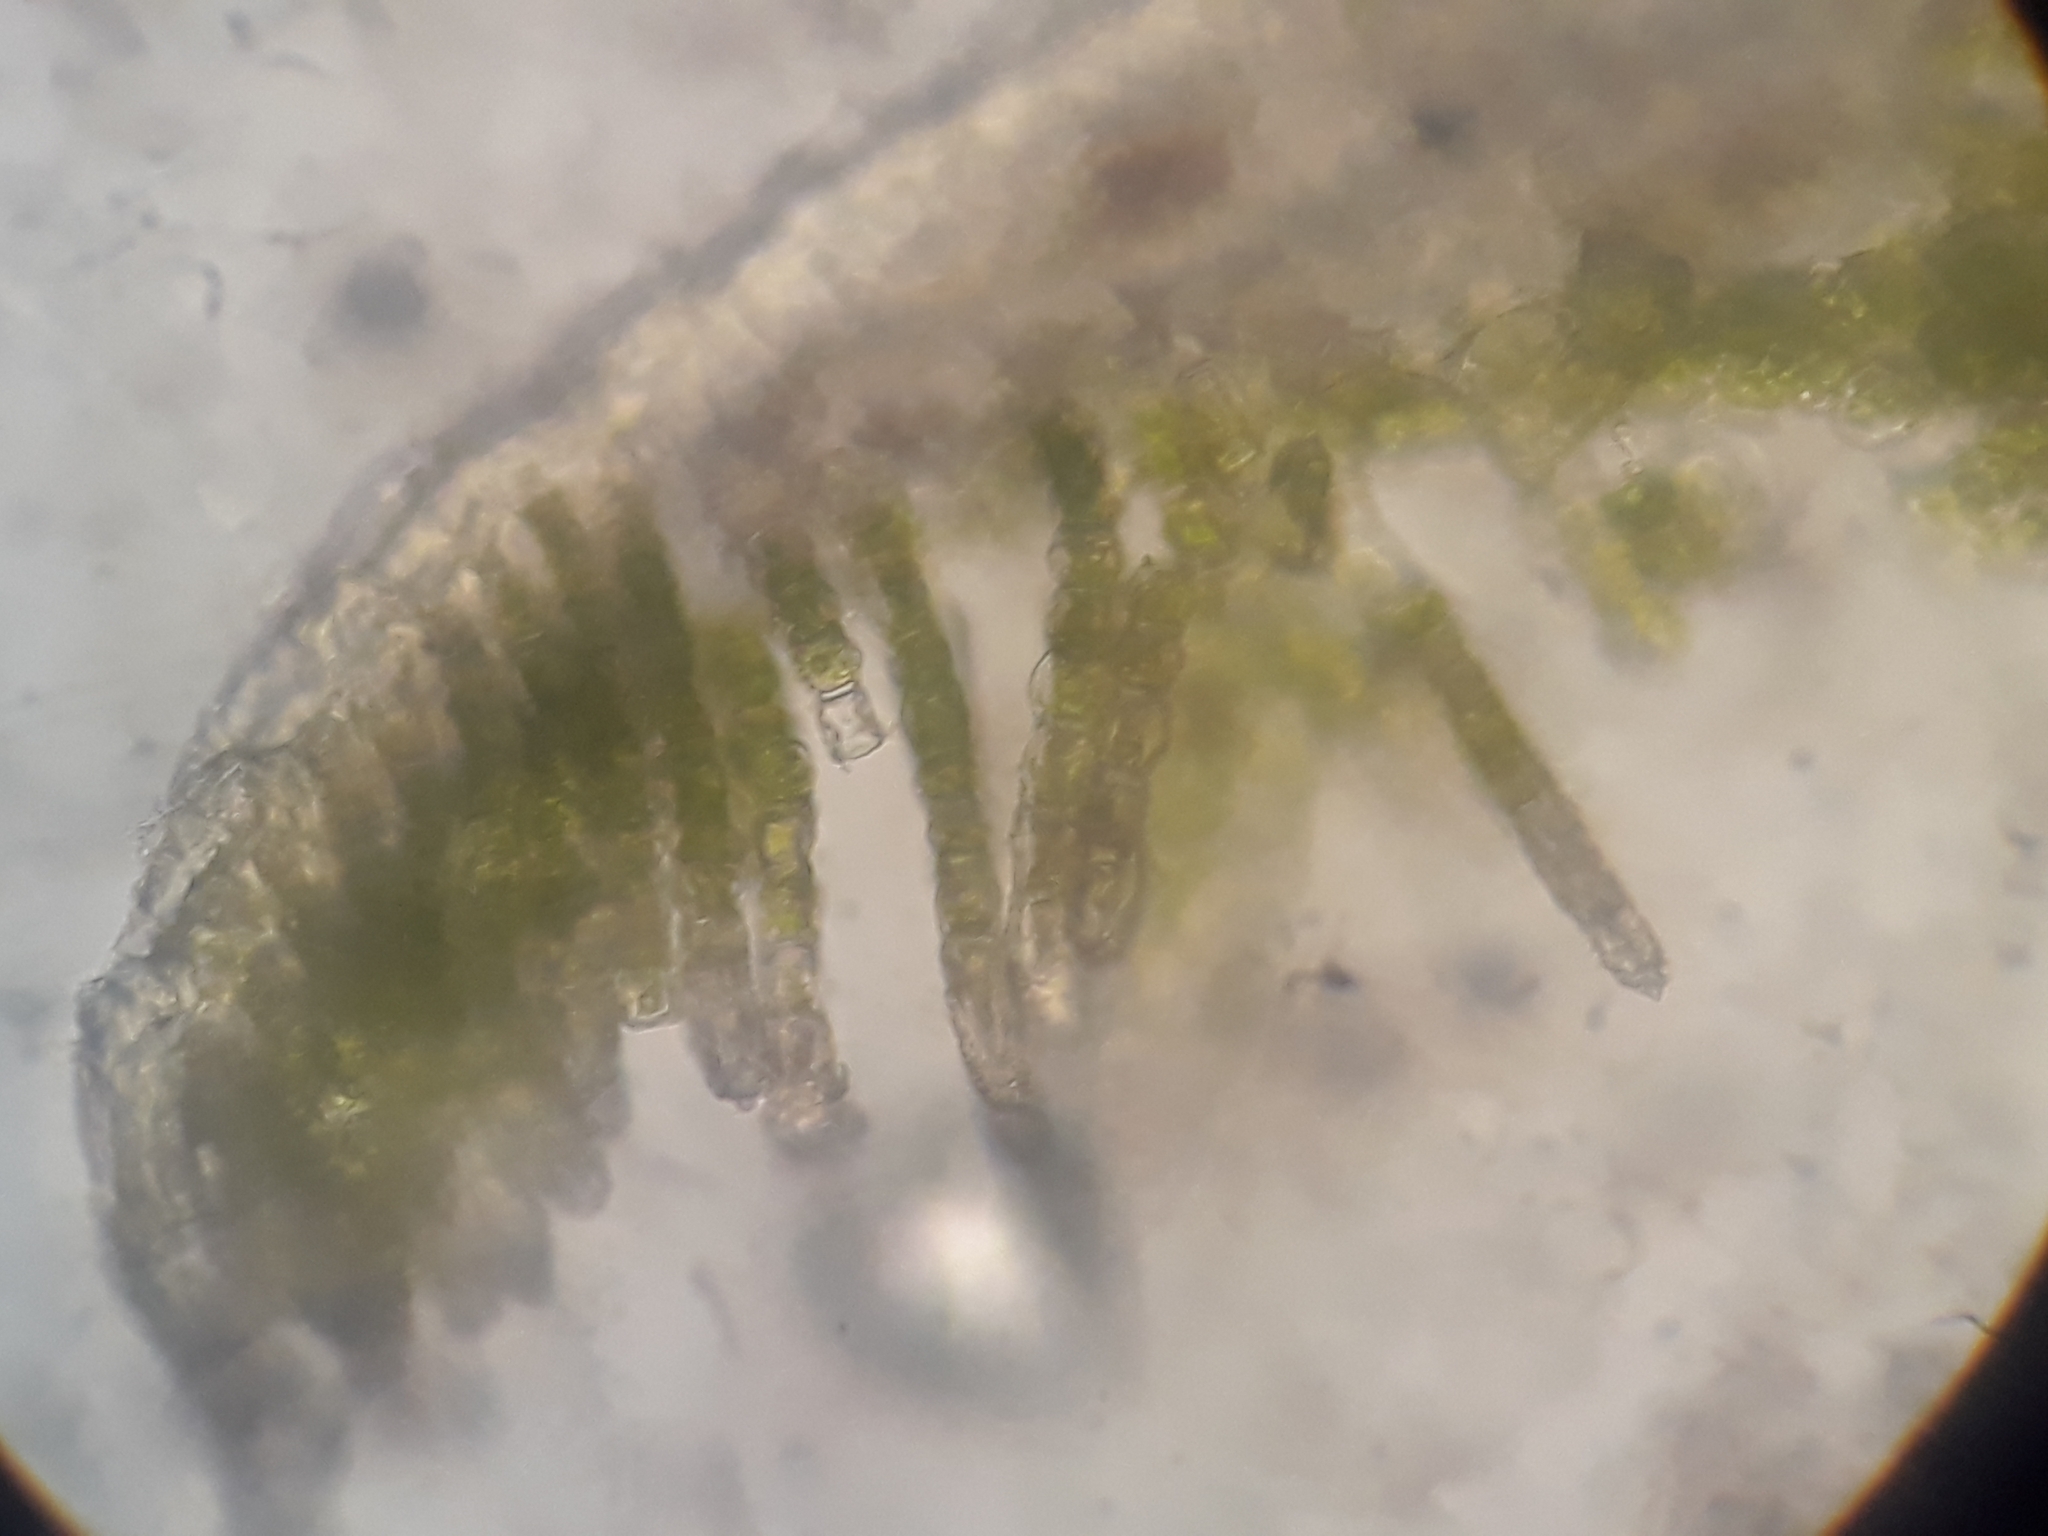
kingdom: Plantae
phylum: Bryophyta
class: Polytrichopsida
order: Polytrichales
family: Polytrichaceae
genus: Atrichopsis
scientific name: Atrichopsis australis
